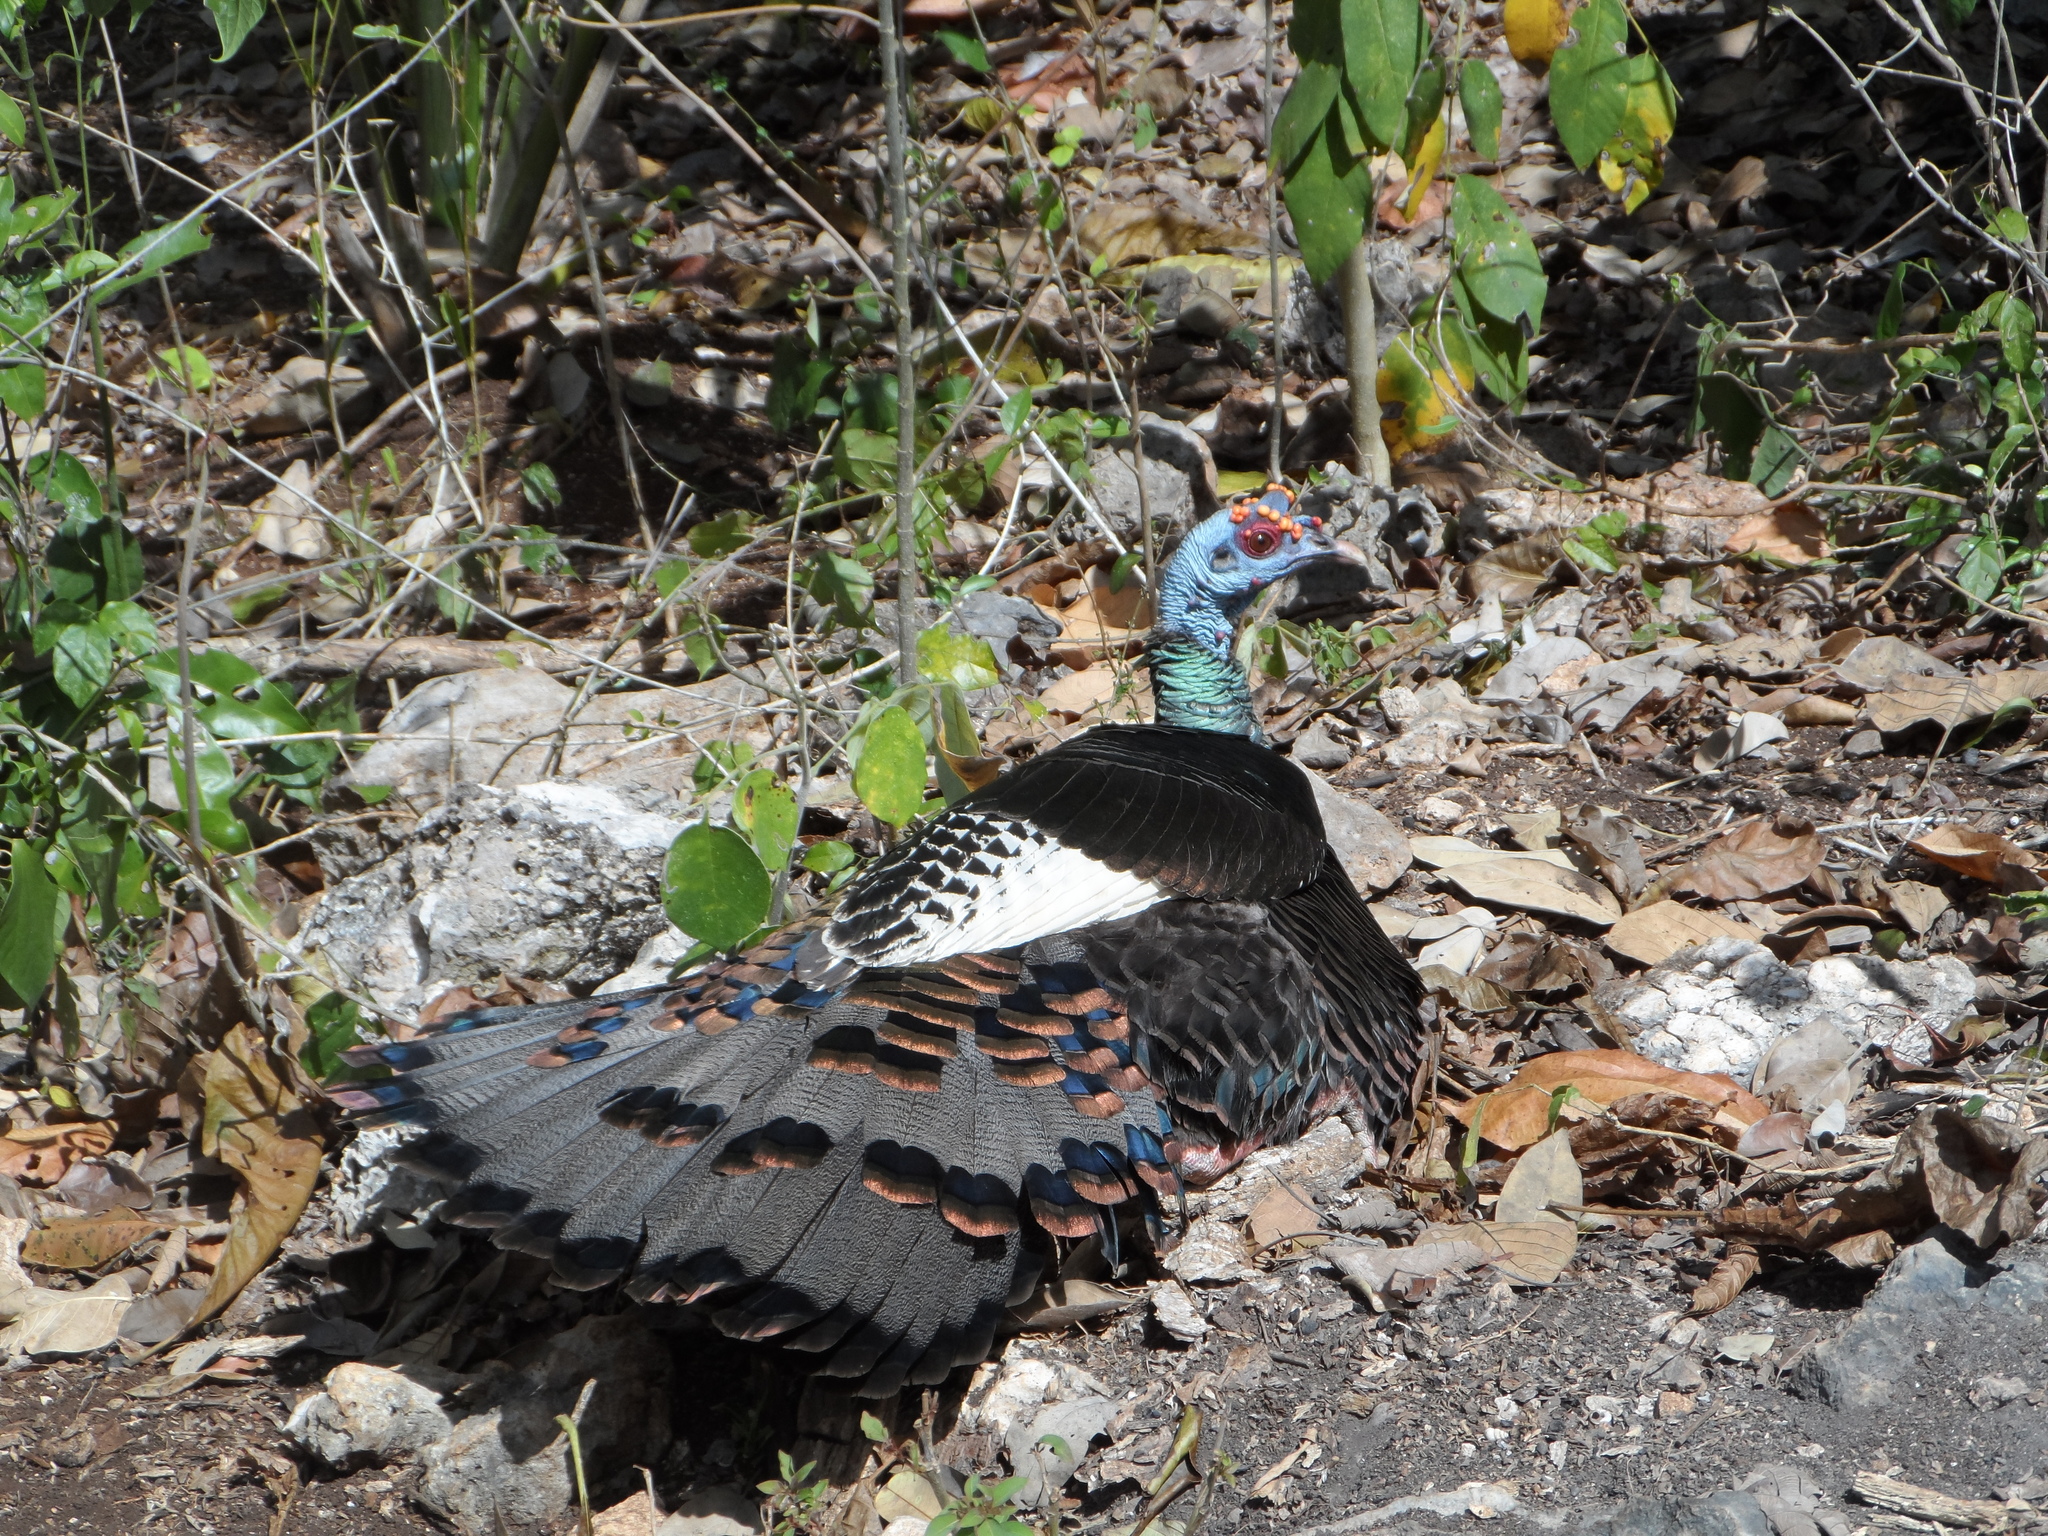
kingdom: Animalia
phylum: Chordata
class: Aves
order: Galliformes
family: Phasianidae
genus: Meleagris
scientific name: Meleagris ocellata
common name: Ocellated turkey
